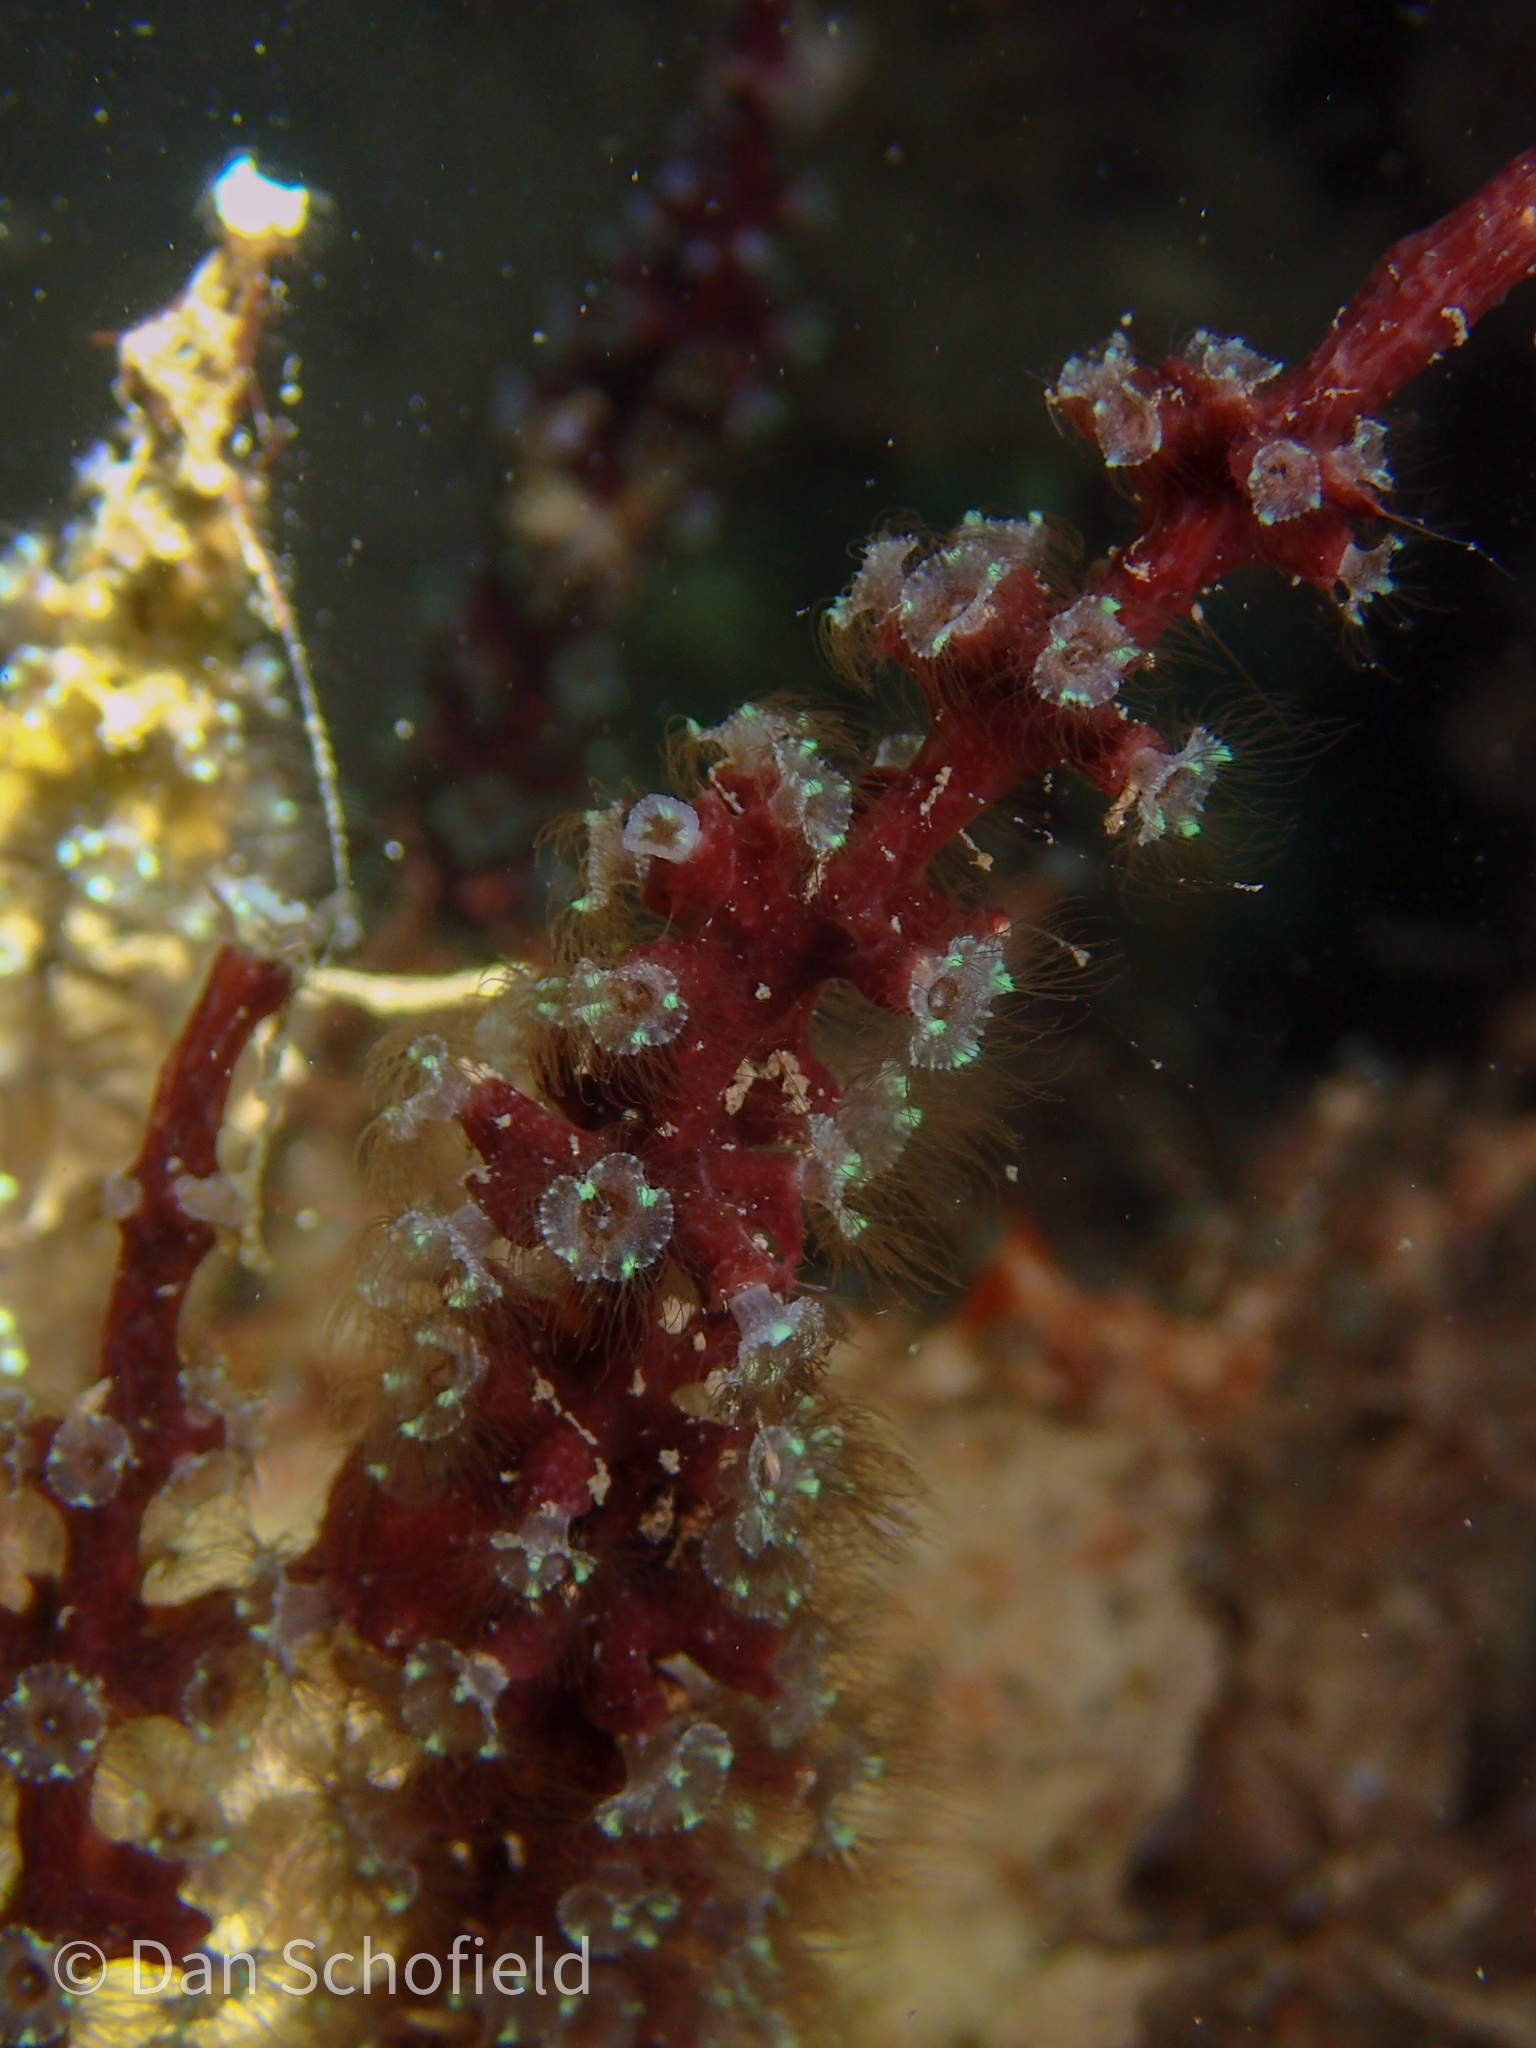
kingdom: Animalia
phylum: Cnidaria
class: Scyphozoa
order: Coronatae
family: Nausithoidae
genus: Nausithoe
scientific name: Nausithoe racemosa
